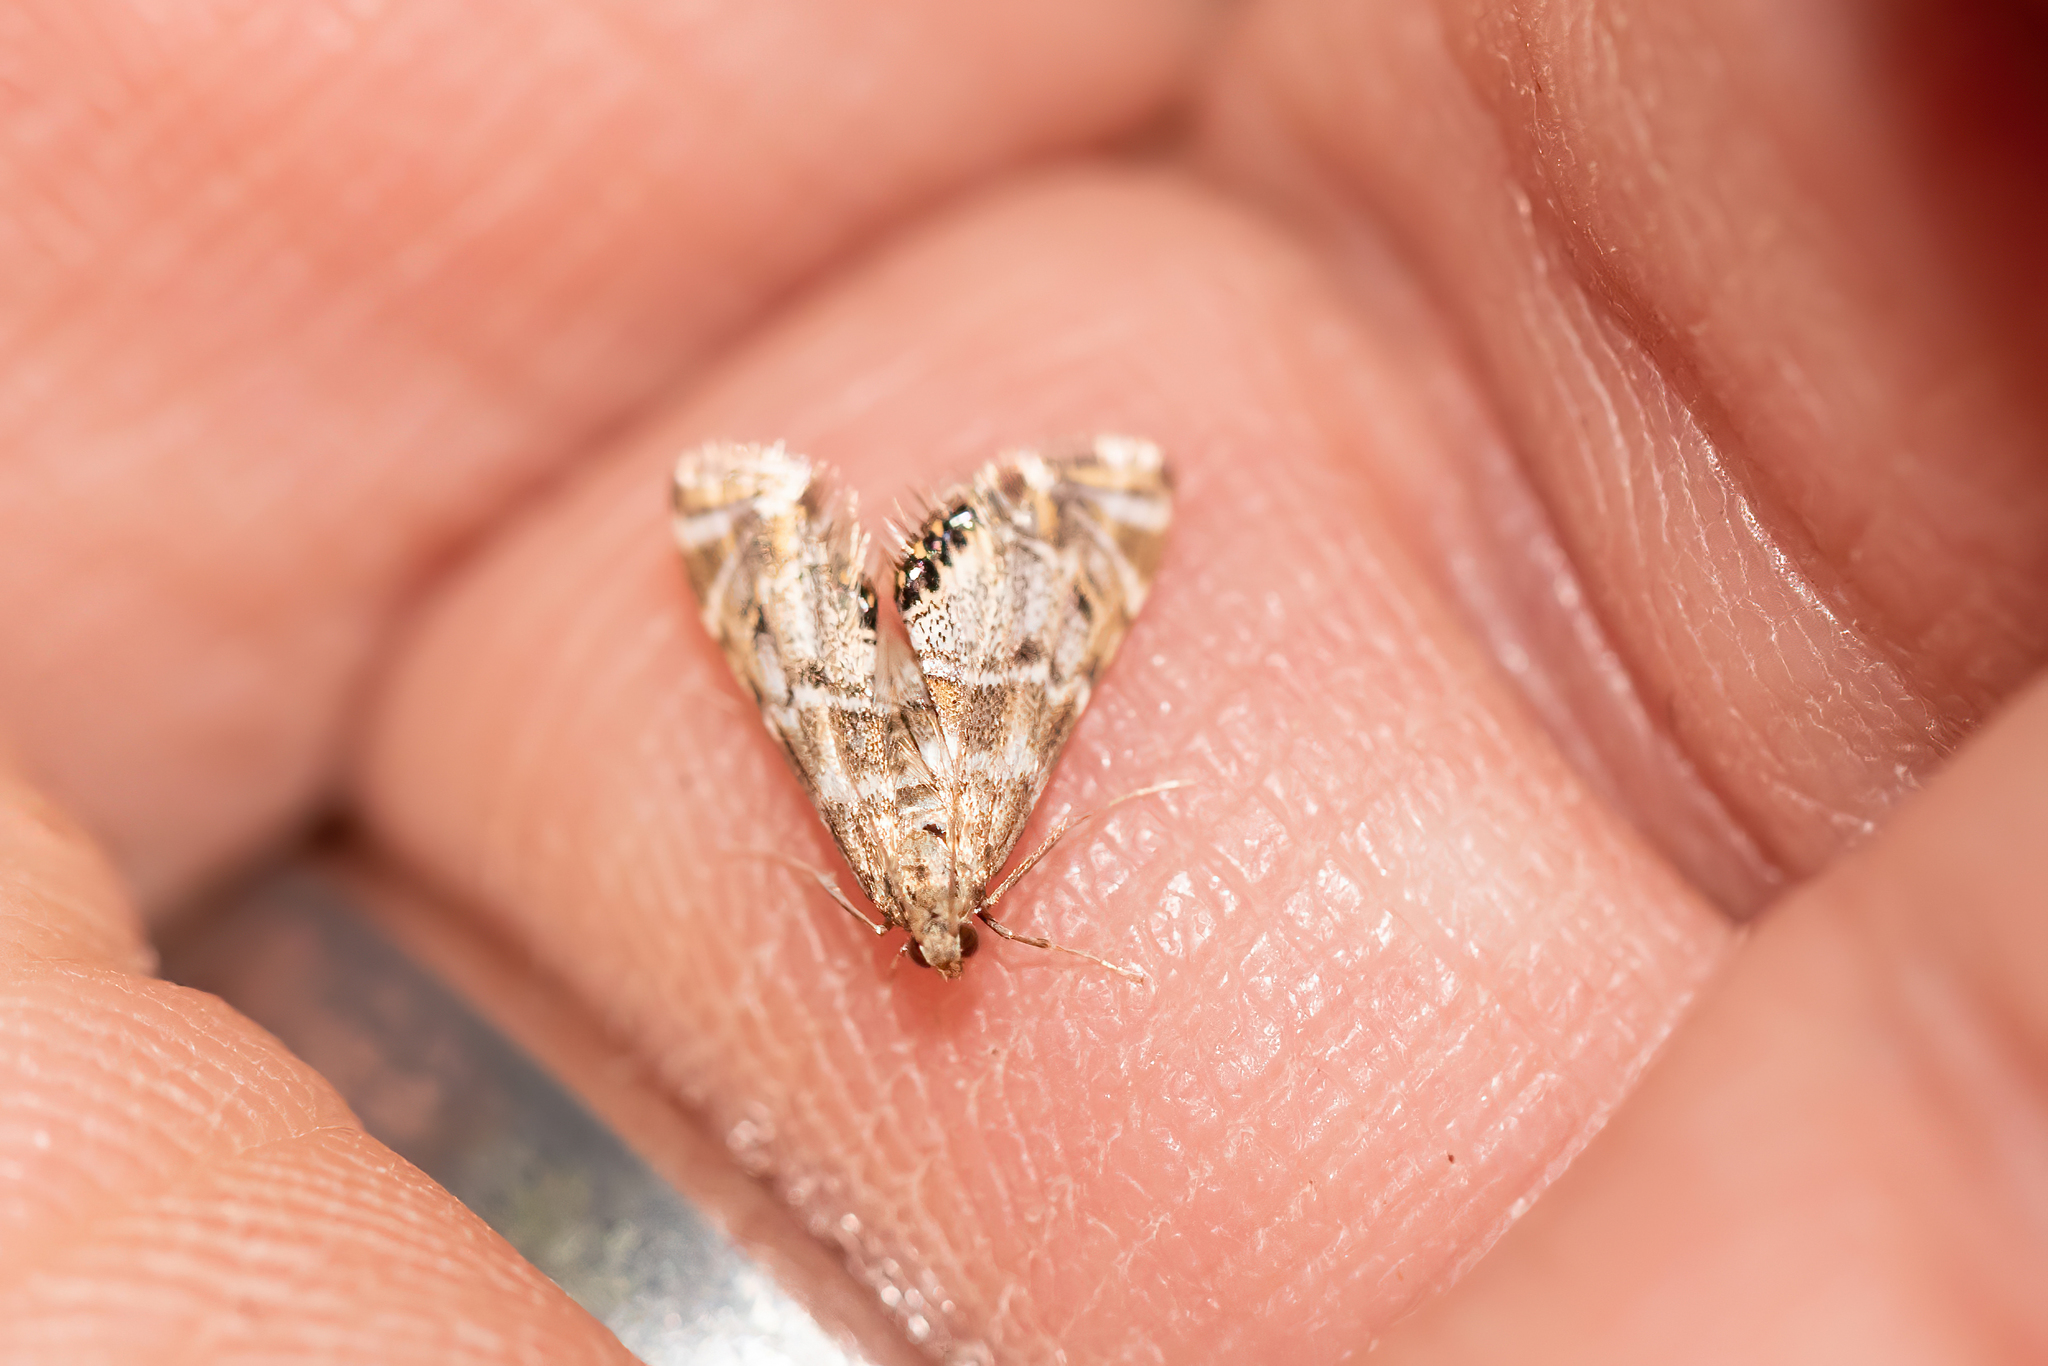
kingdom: Animalia
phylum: Arthropoda
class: Insecta
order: Lepidoptera
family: Crambidae
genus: Petrophila
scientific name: Petrophila confusalis
